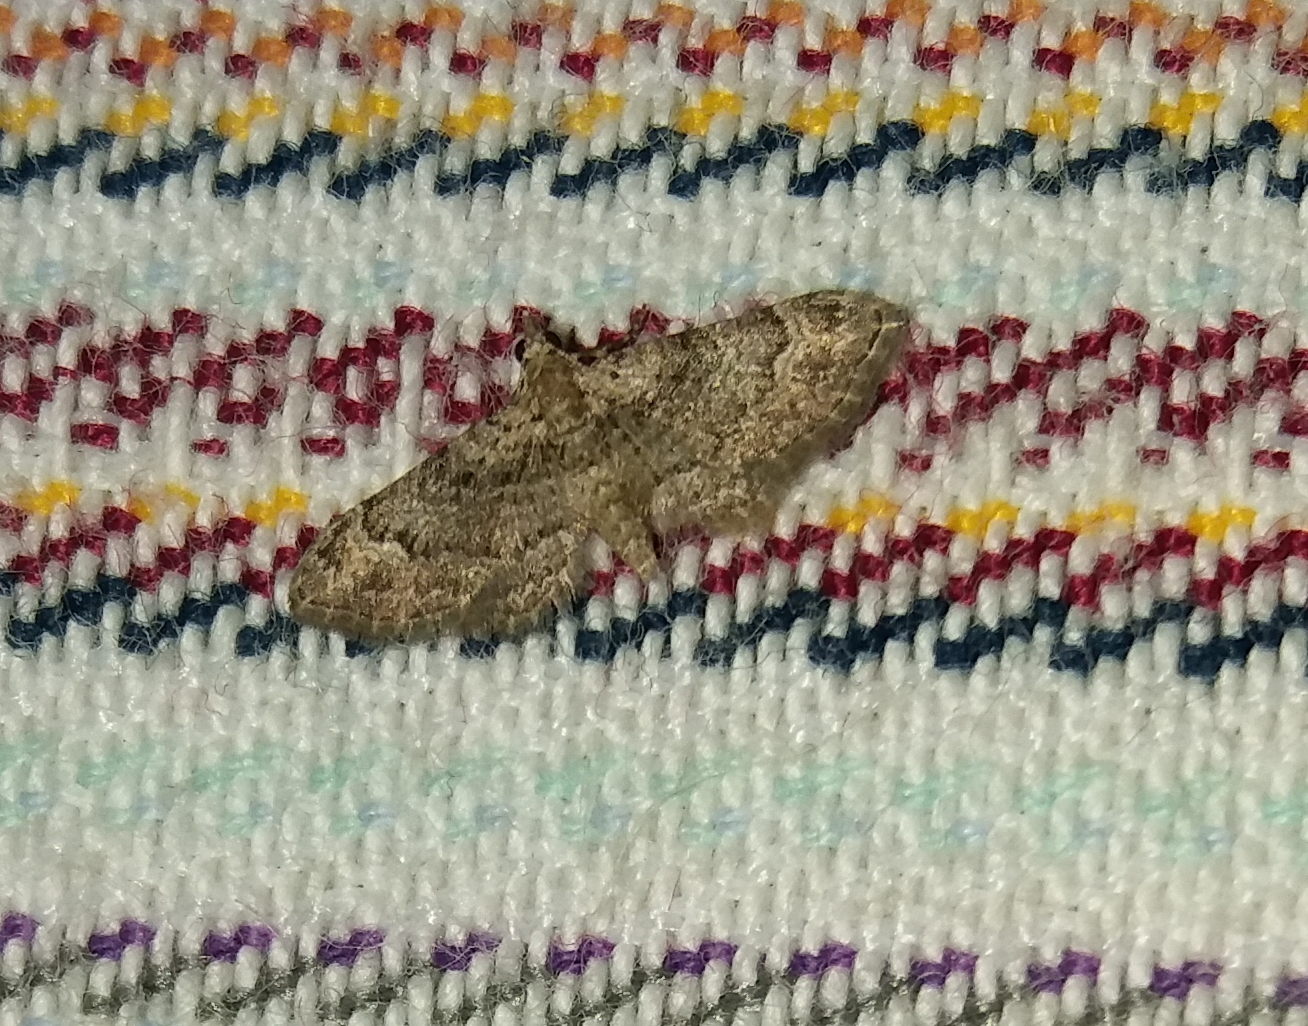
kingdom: Animalia
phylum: Arthropoda
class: Insecta
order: Lepidoptera
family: Geometridae
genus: Gymnoscelis
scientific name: Gymnoscelis rufifasciata
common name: Double-striped pug
